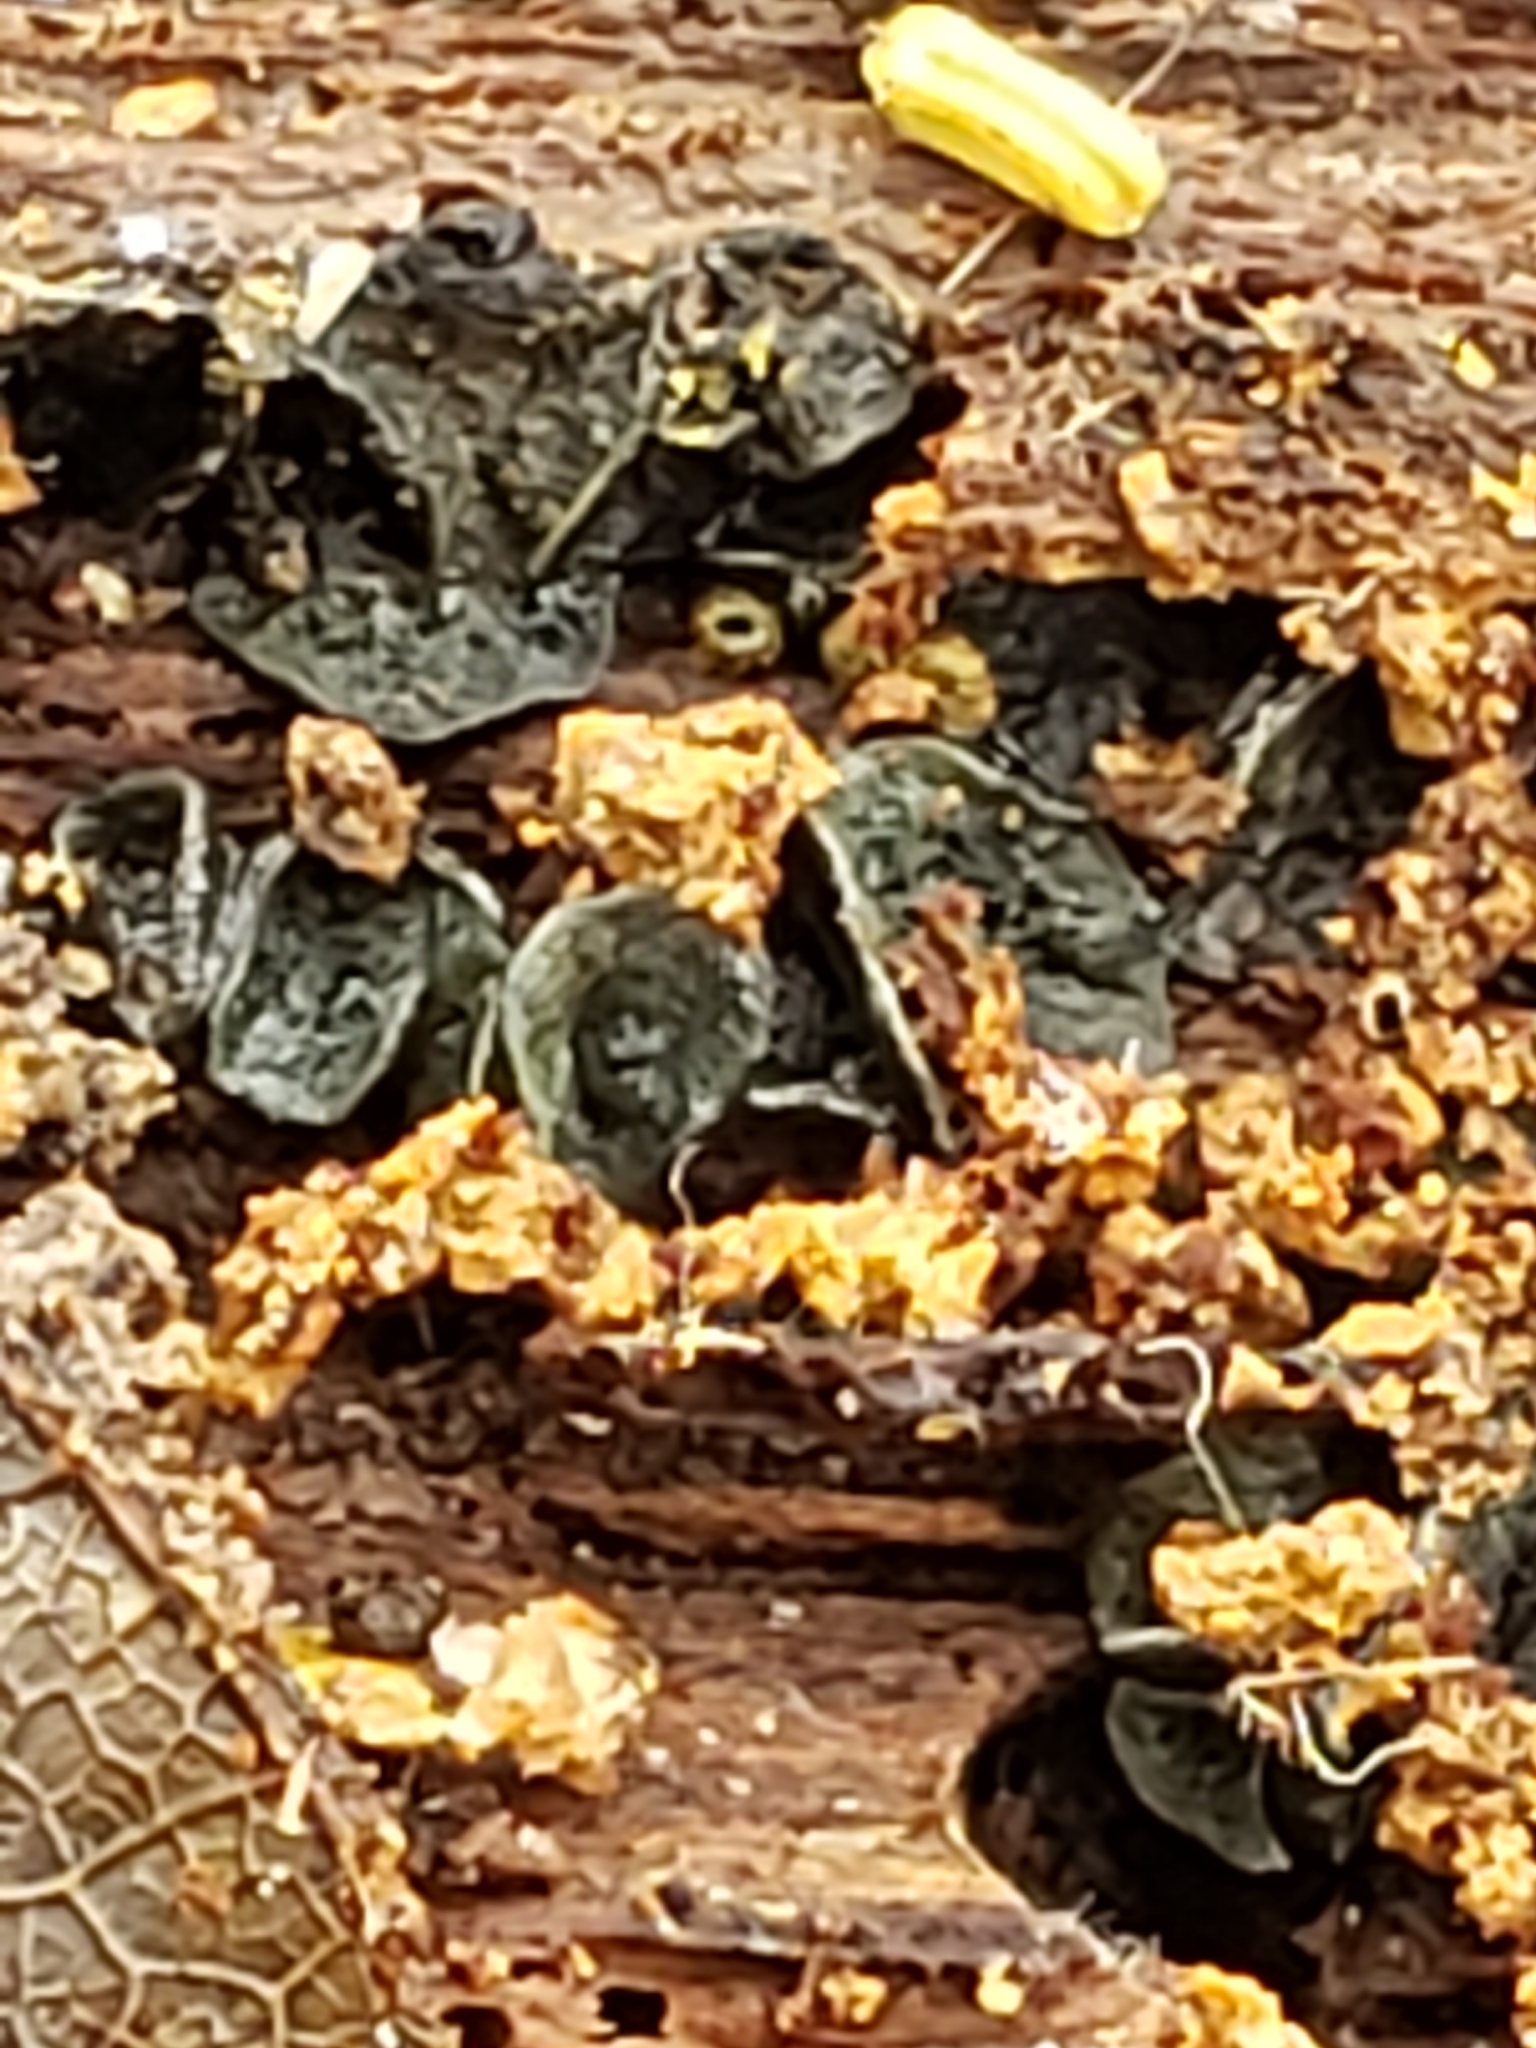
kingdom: Fungi
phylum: Ascomycota
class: Leotiomycetes
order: Helotiales
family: Chlorospleniaceae
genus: Chlorosplenium
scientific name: Chlorosplenium chlora
